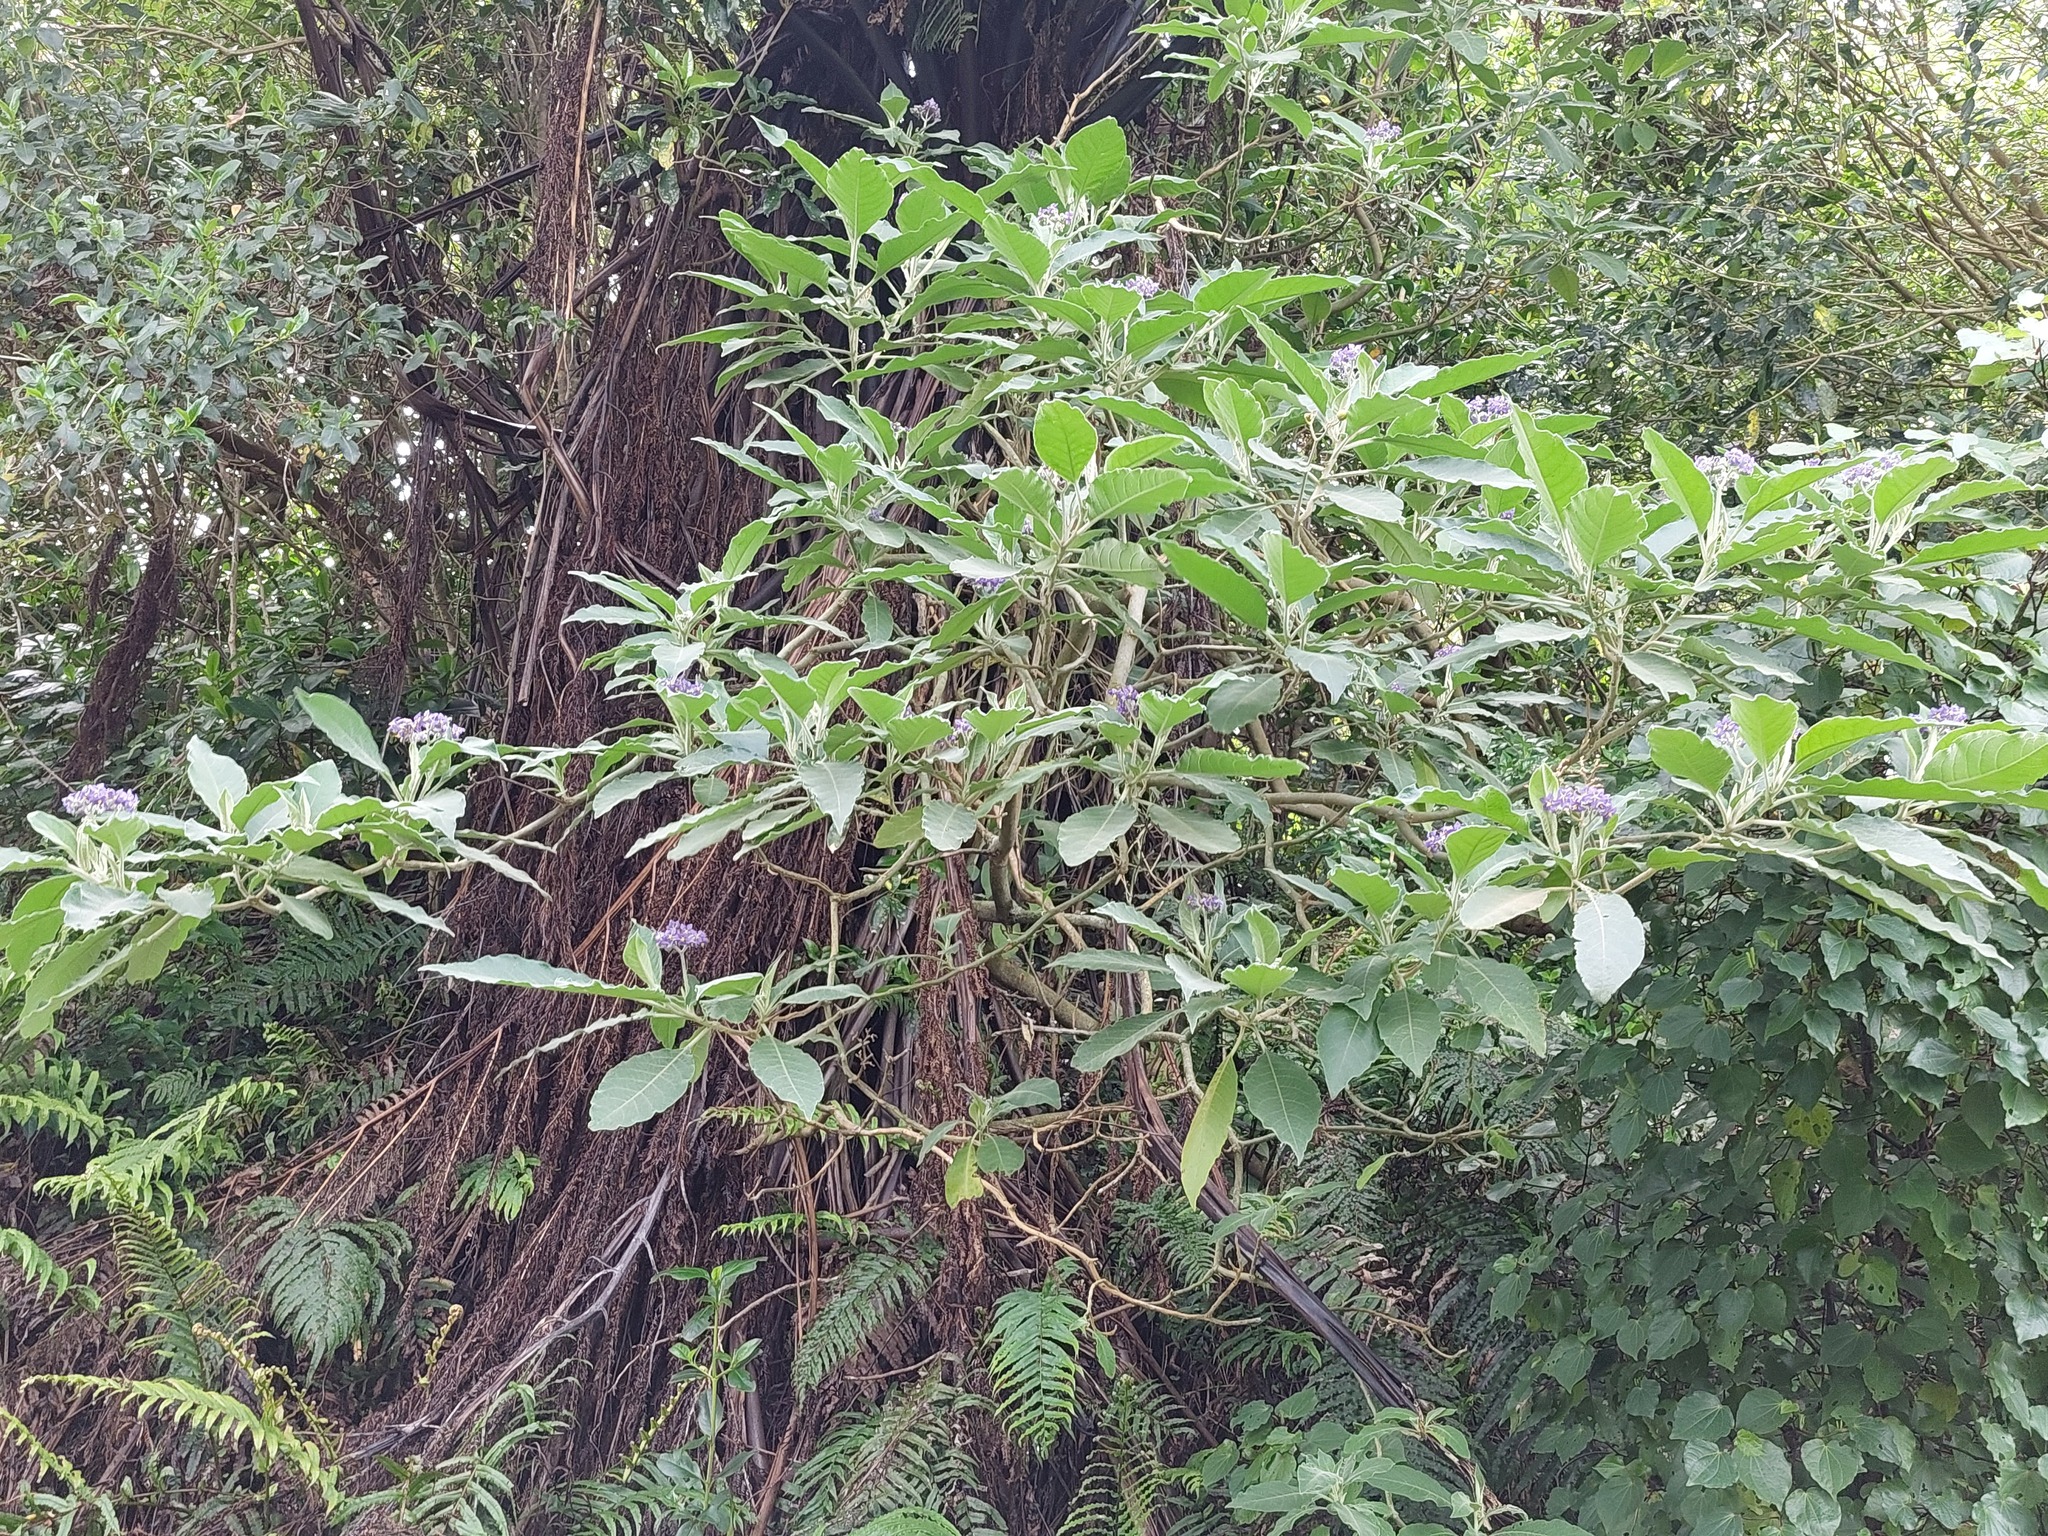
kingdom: Plantae
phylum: Tracheophyta
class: Magnoliopsida
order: Solanales
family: Solanaceae
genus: Solanum
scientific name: Solanum mauritianum
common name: Earleaf nightshade
